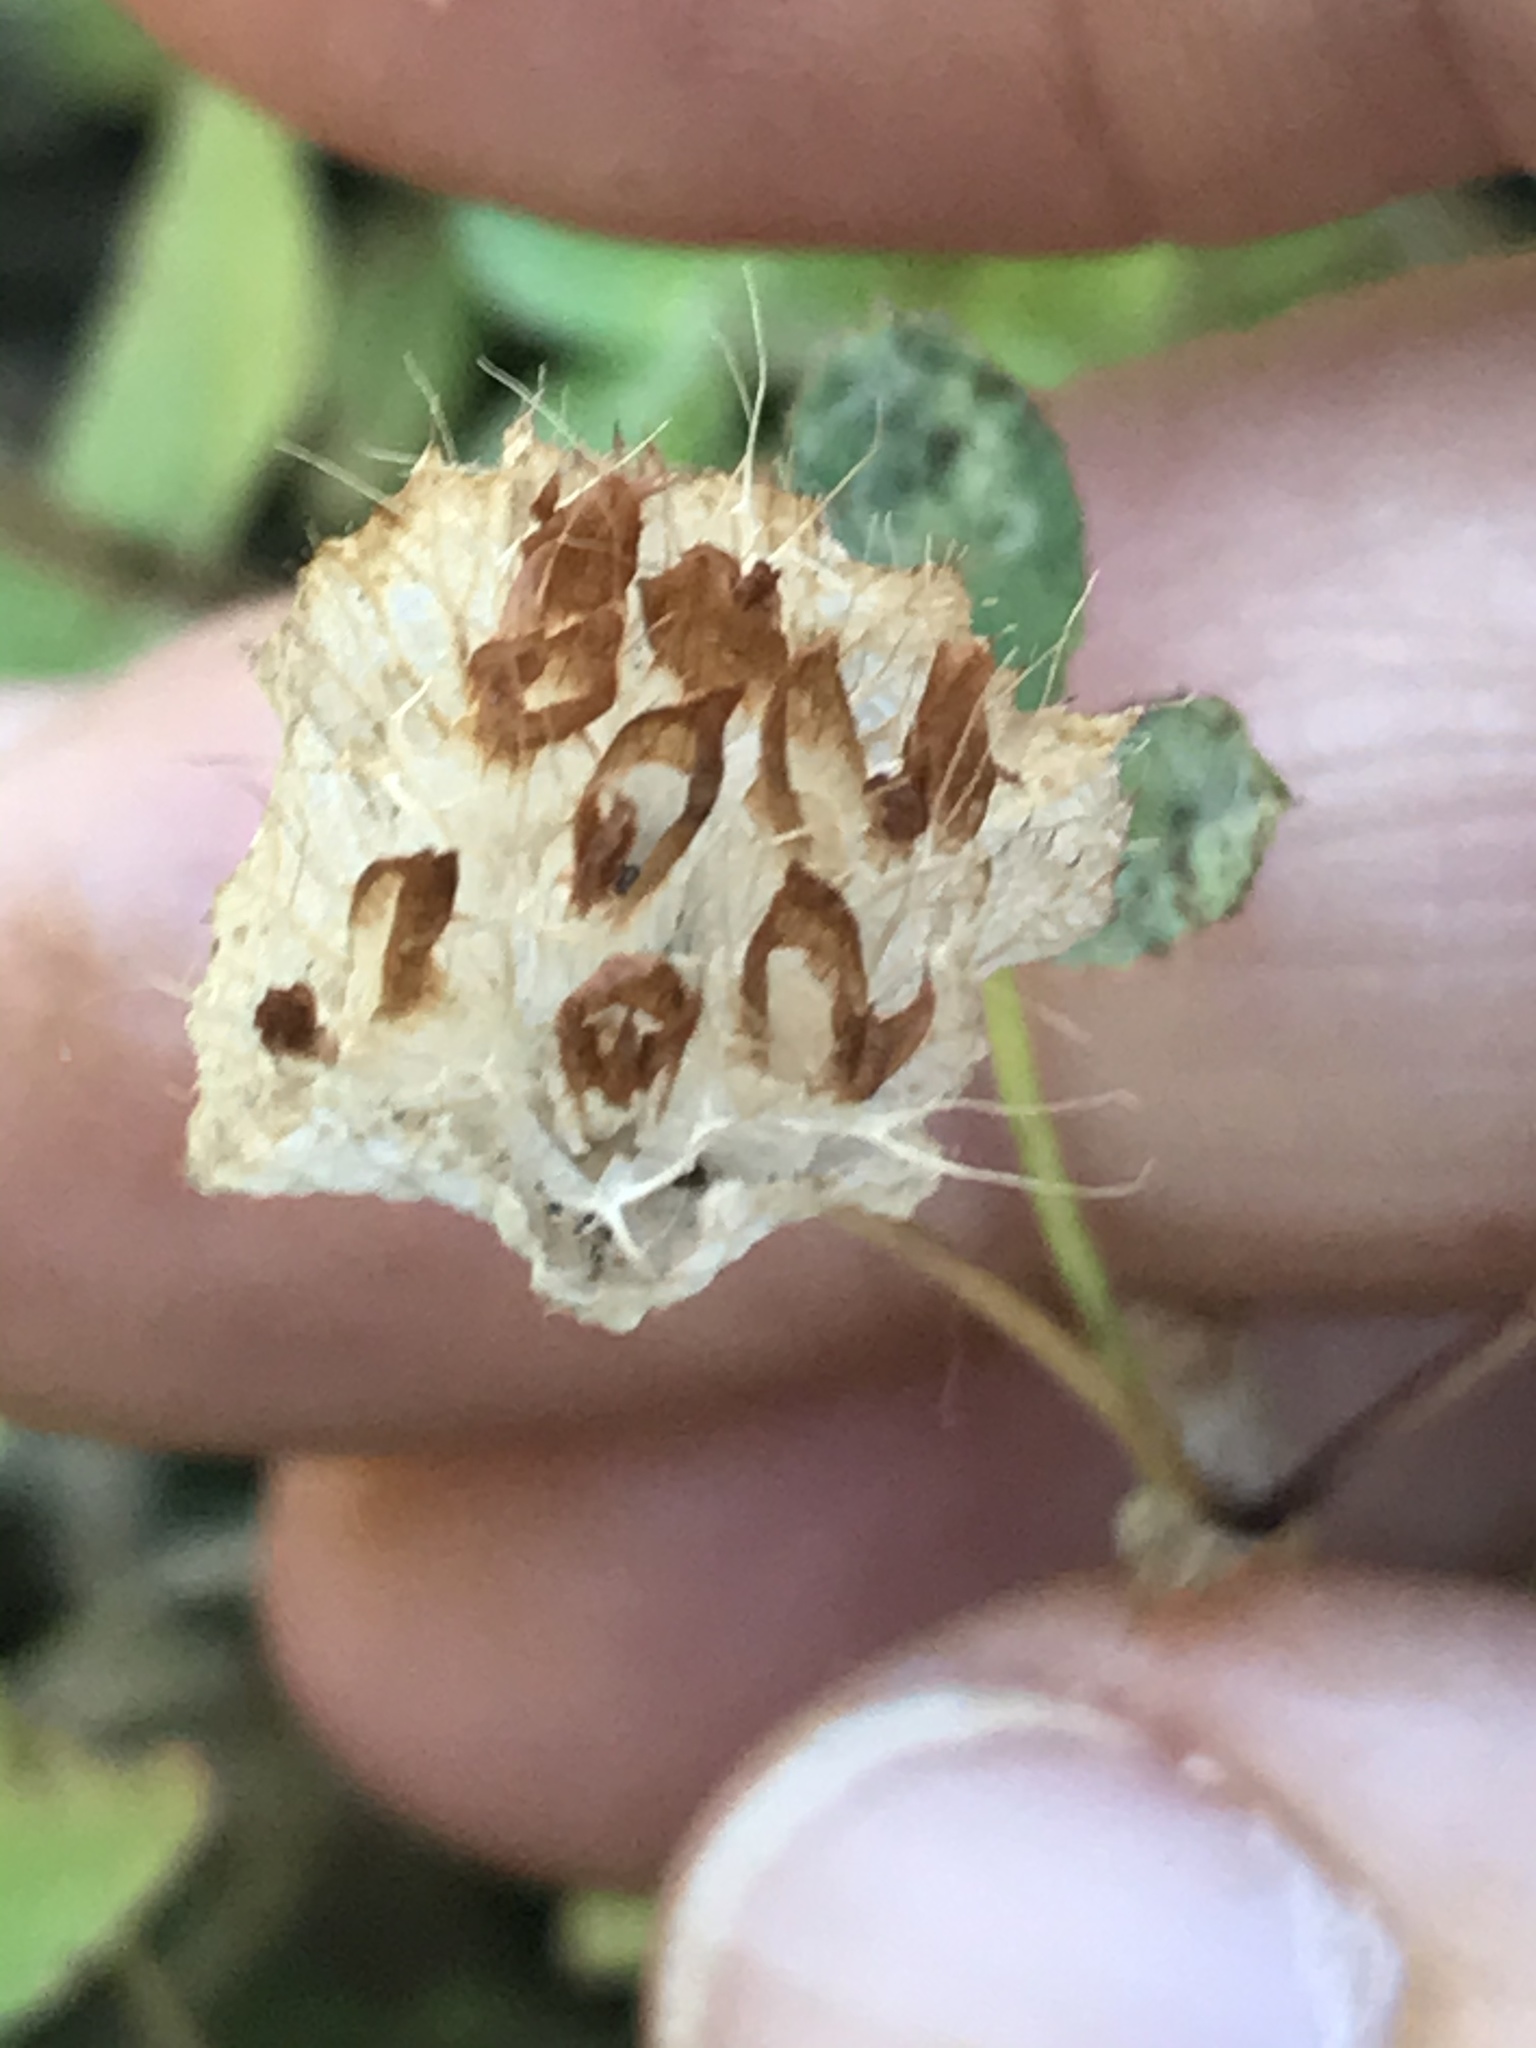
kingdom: Plantae
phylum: Tracheophyta
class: Magnoliopsida
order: Fabales
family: Fabaceae
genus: Trifolium
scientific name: Trifolium cyathiferum
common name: Bowl clover
